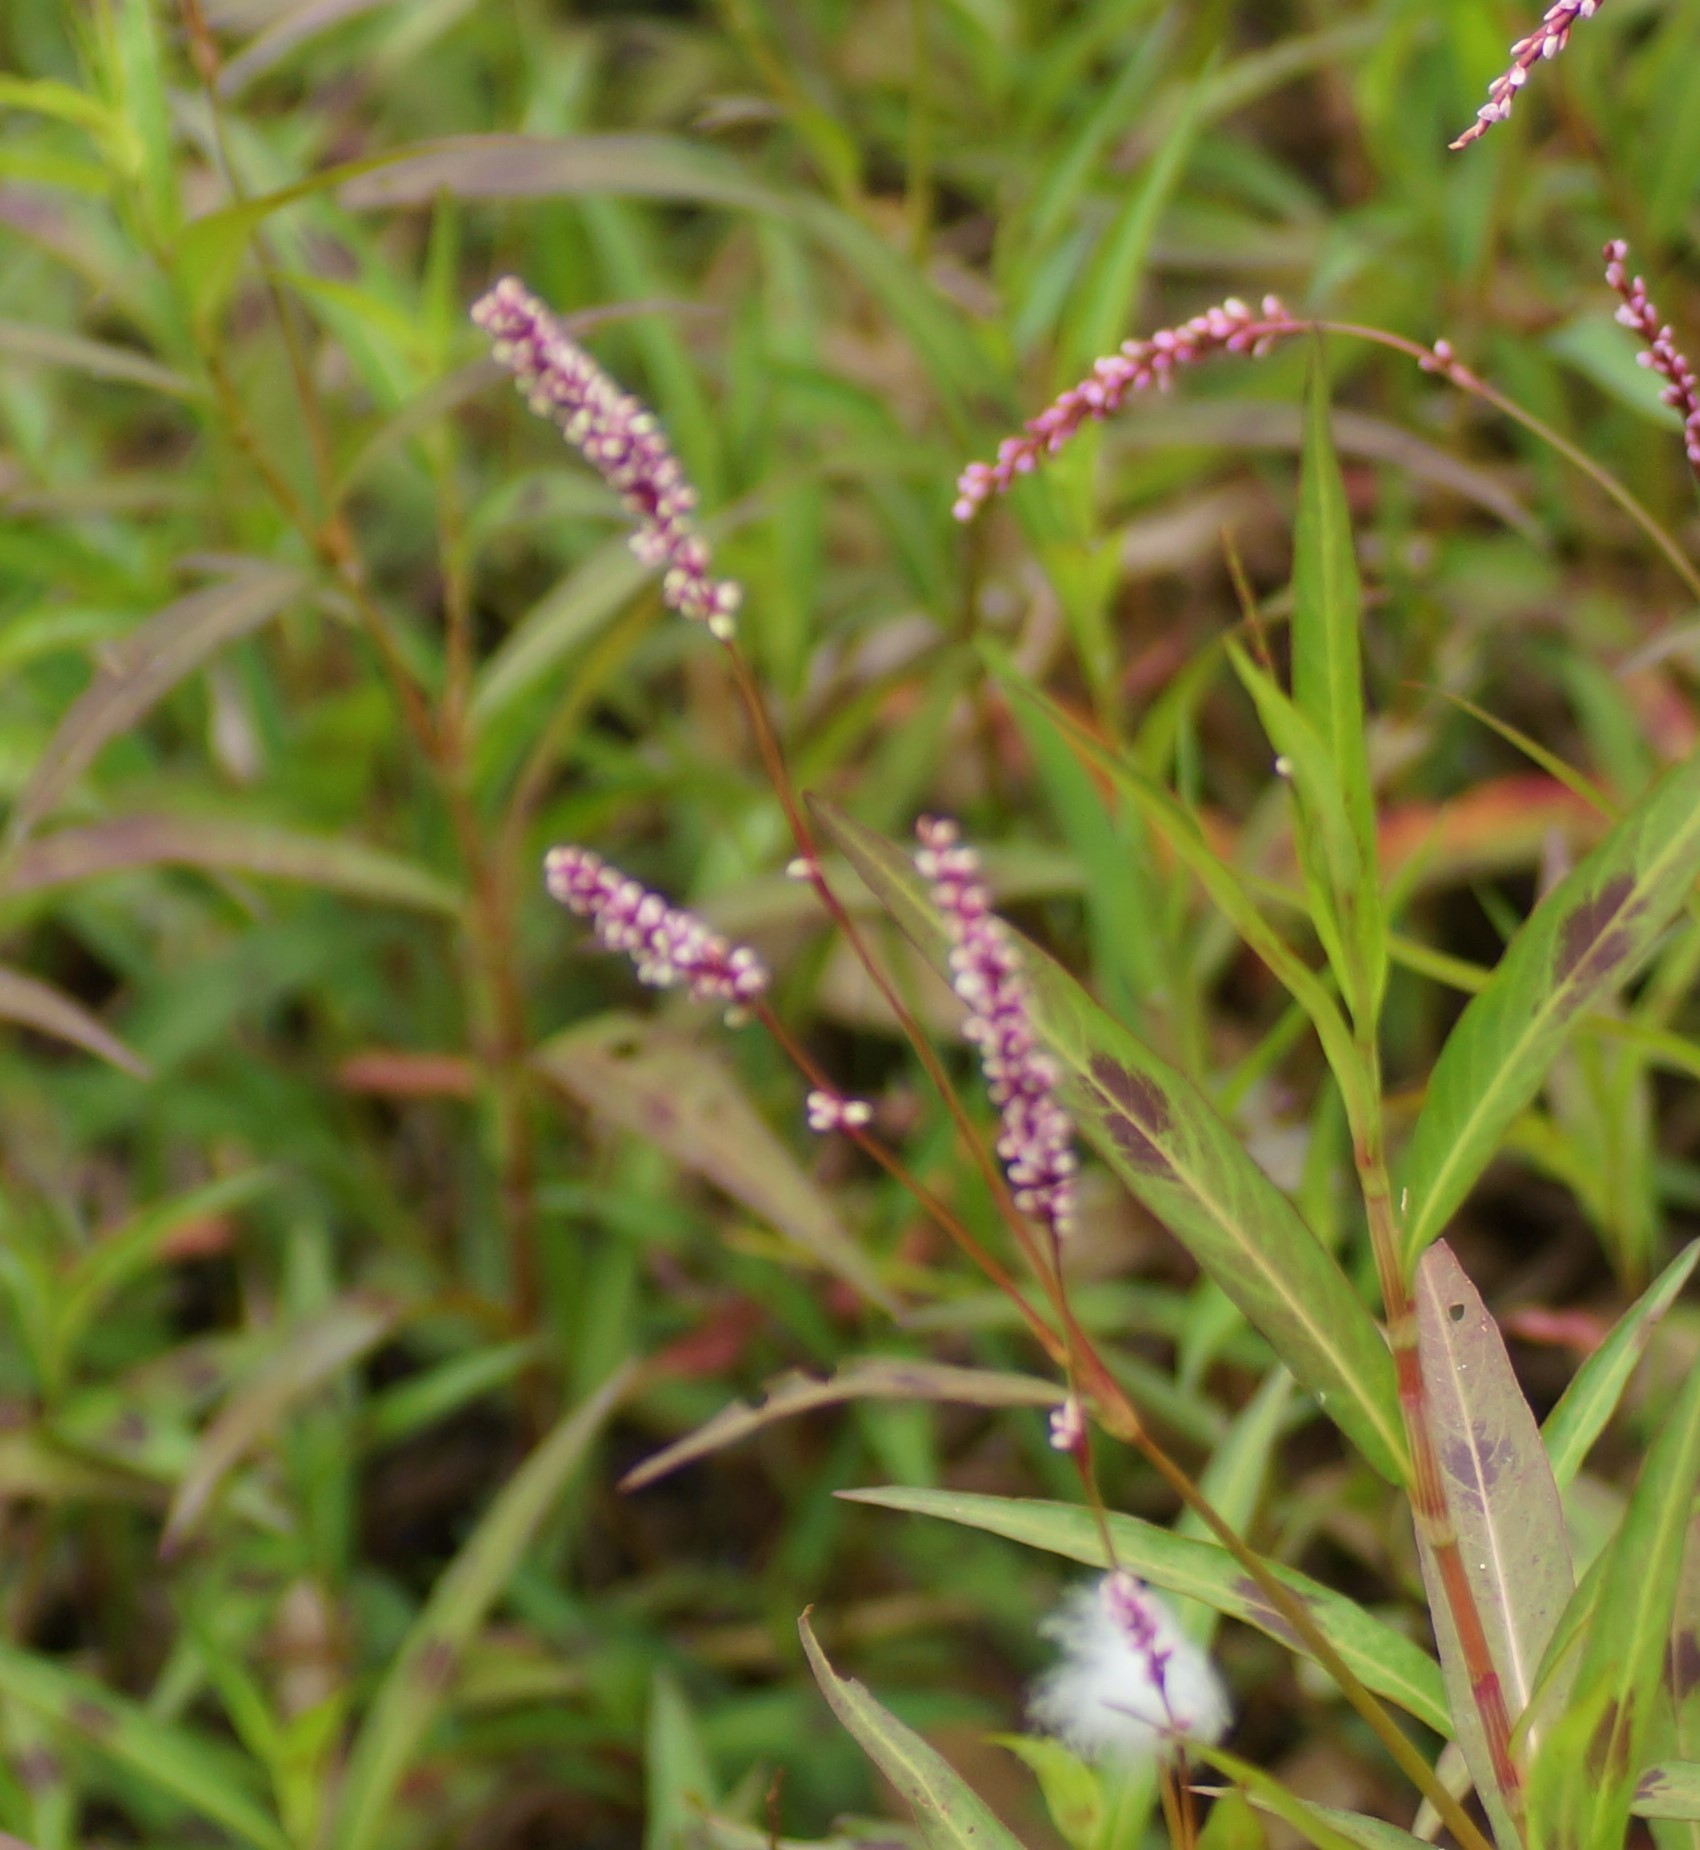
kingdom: Plantae
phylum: Tracheophyta
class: Magnoliopsida
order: Caryophyllales
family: Polygonaceae
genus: Persicaria
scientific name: Persicaria decipiens
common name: Willow-weed
